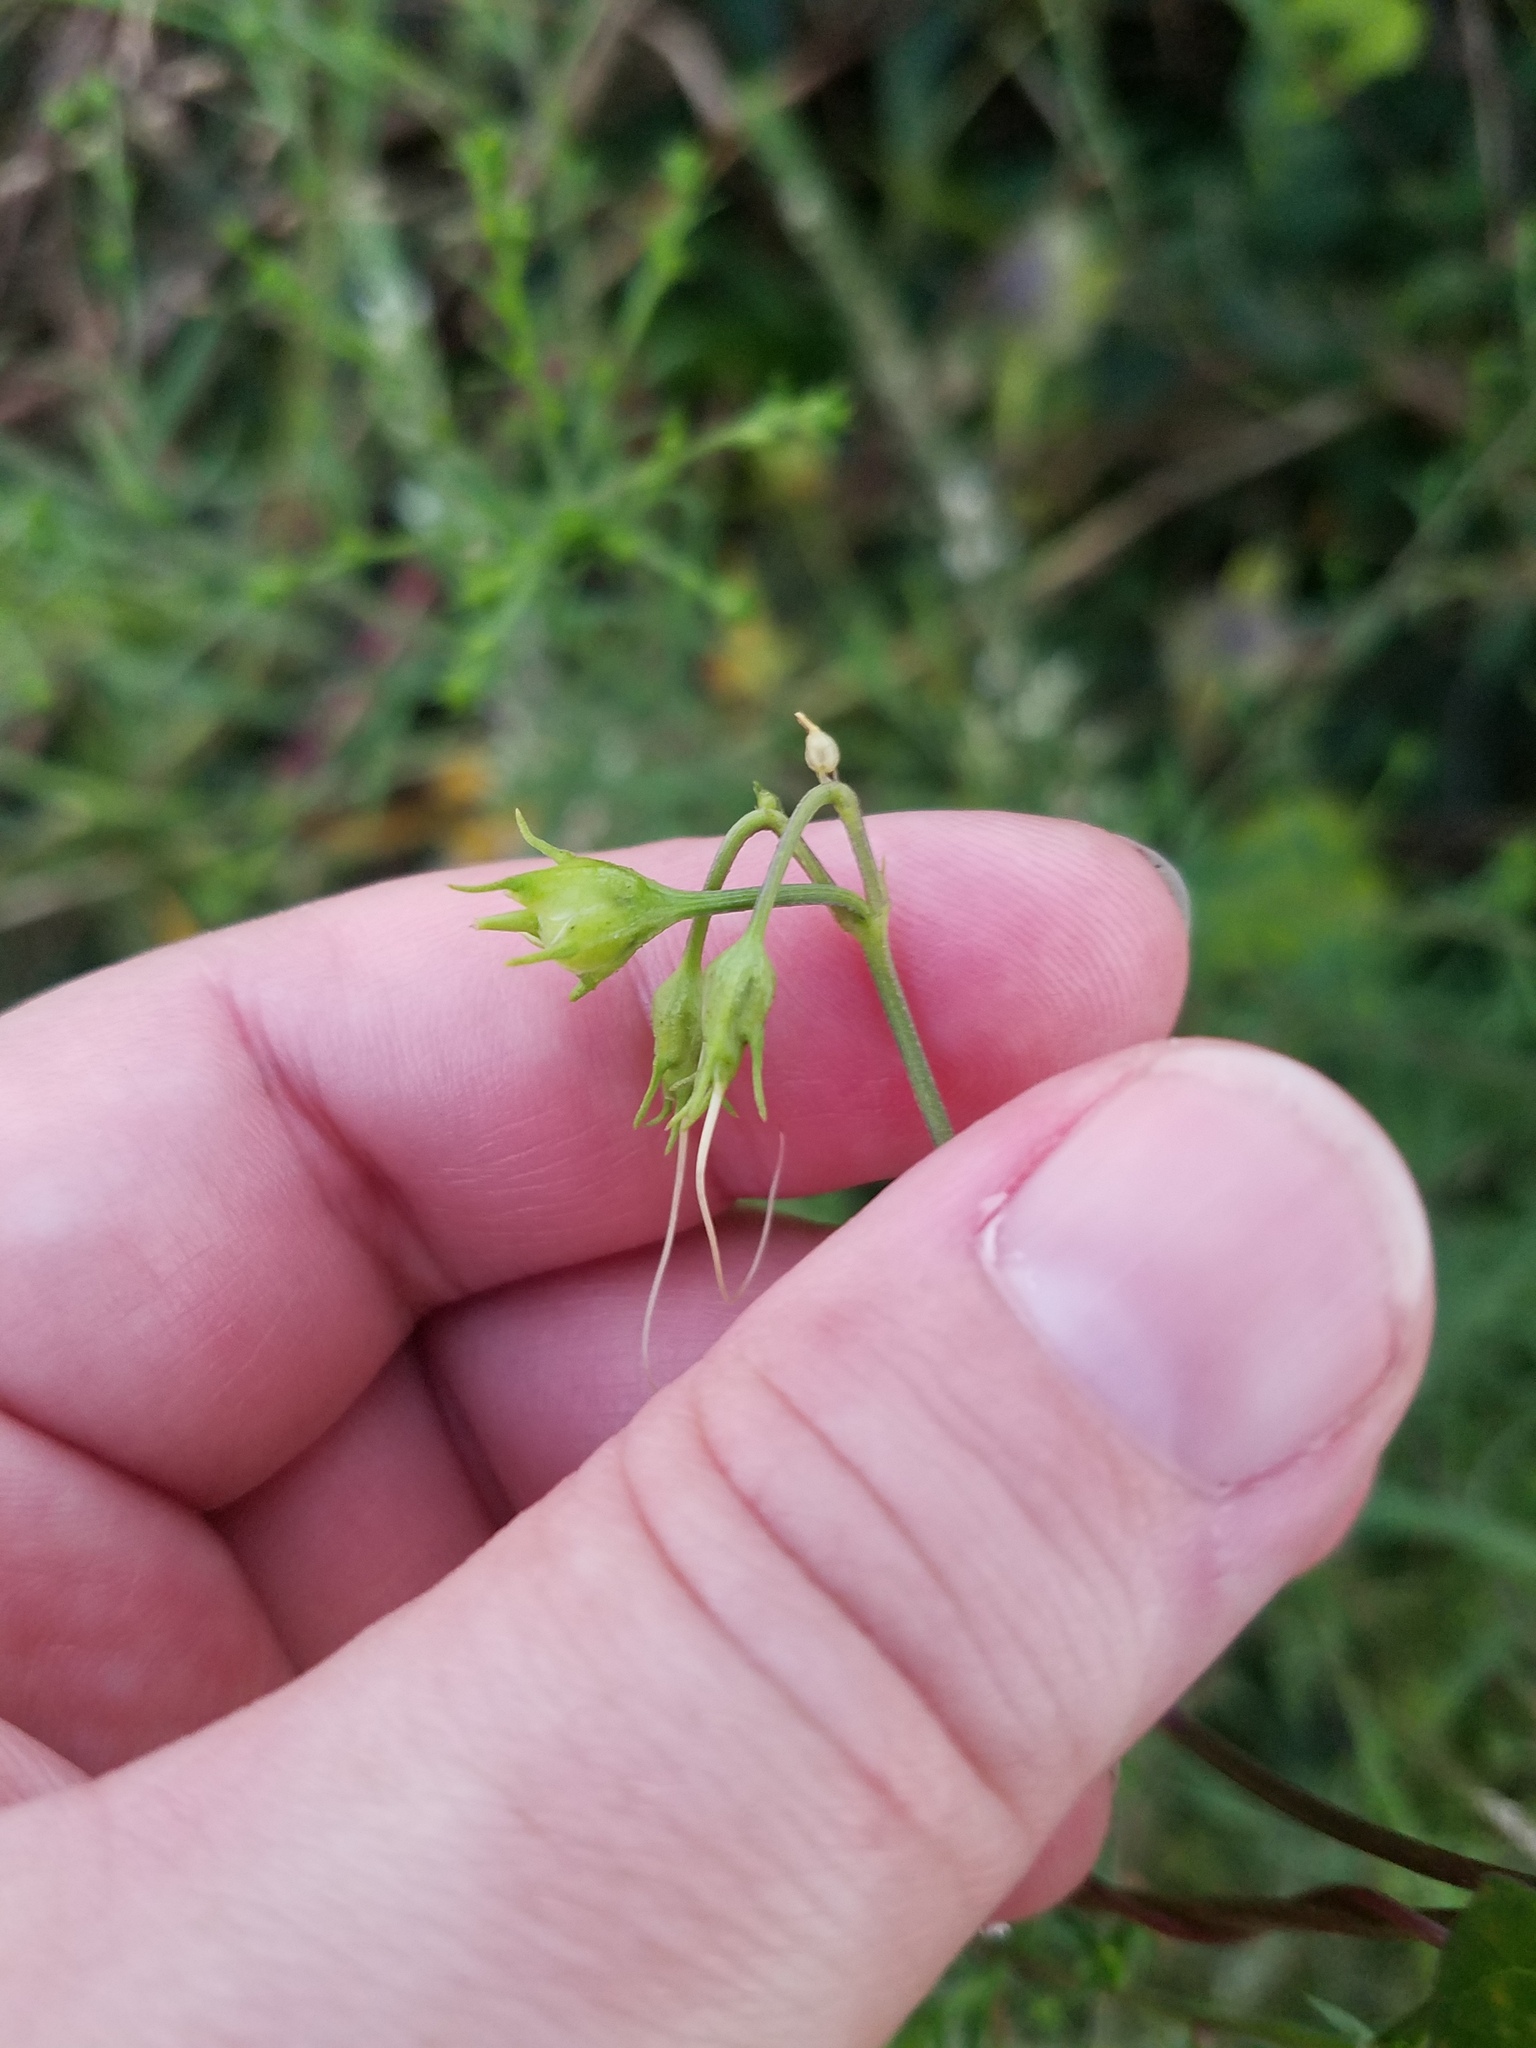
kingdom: Plantae
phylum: Tracheophyta
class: Magnoliopsida
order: Solanales
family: Convolvulaceae
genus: Ipomoea
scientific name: Ipomoea coccinea
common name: Red morning-glory
